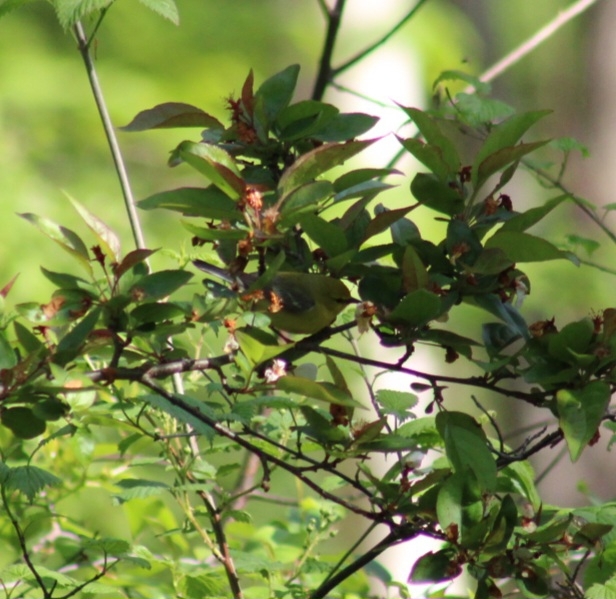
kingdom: Animalia
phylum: Chordata
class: Aves
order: Passeriformes
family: Parulidae
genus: Vermivora
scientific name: Vermivora cyanoptera
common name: Blue-winged warbler
